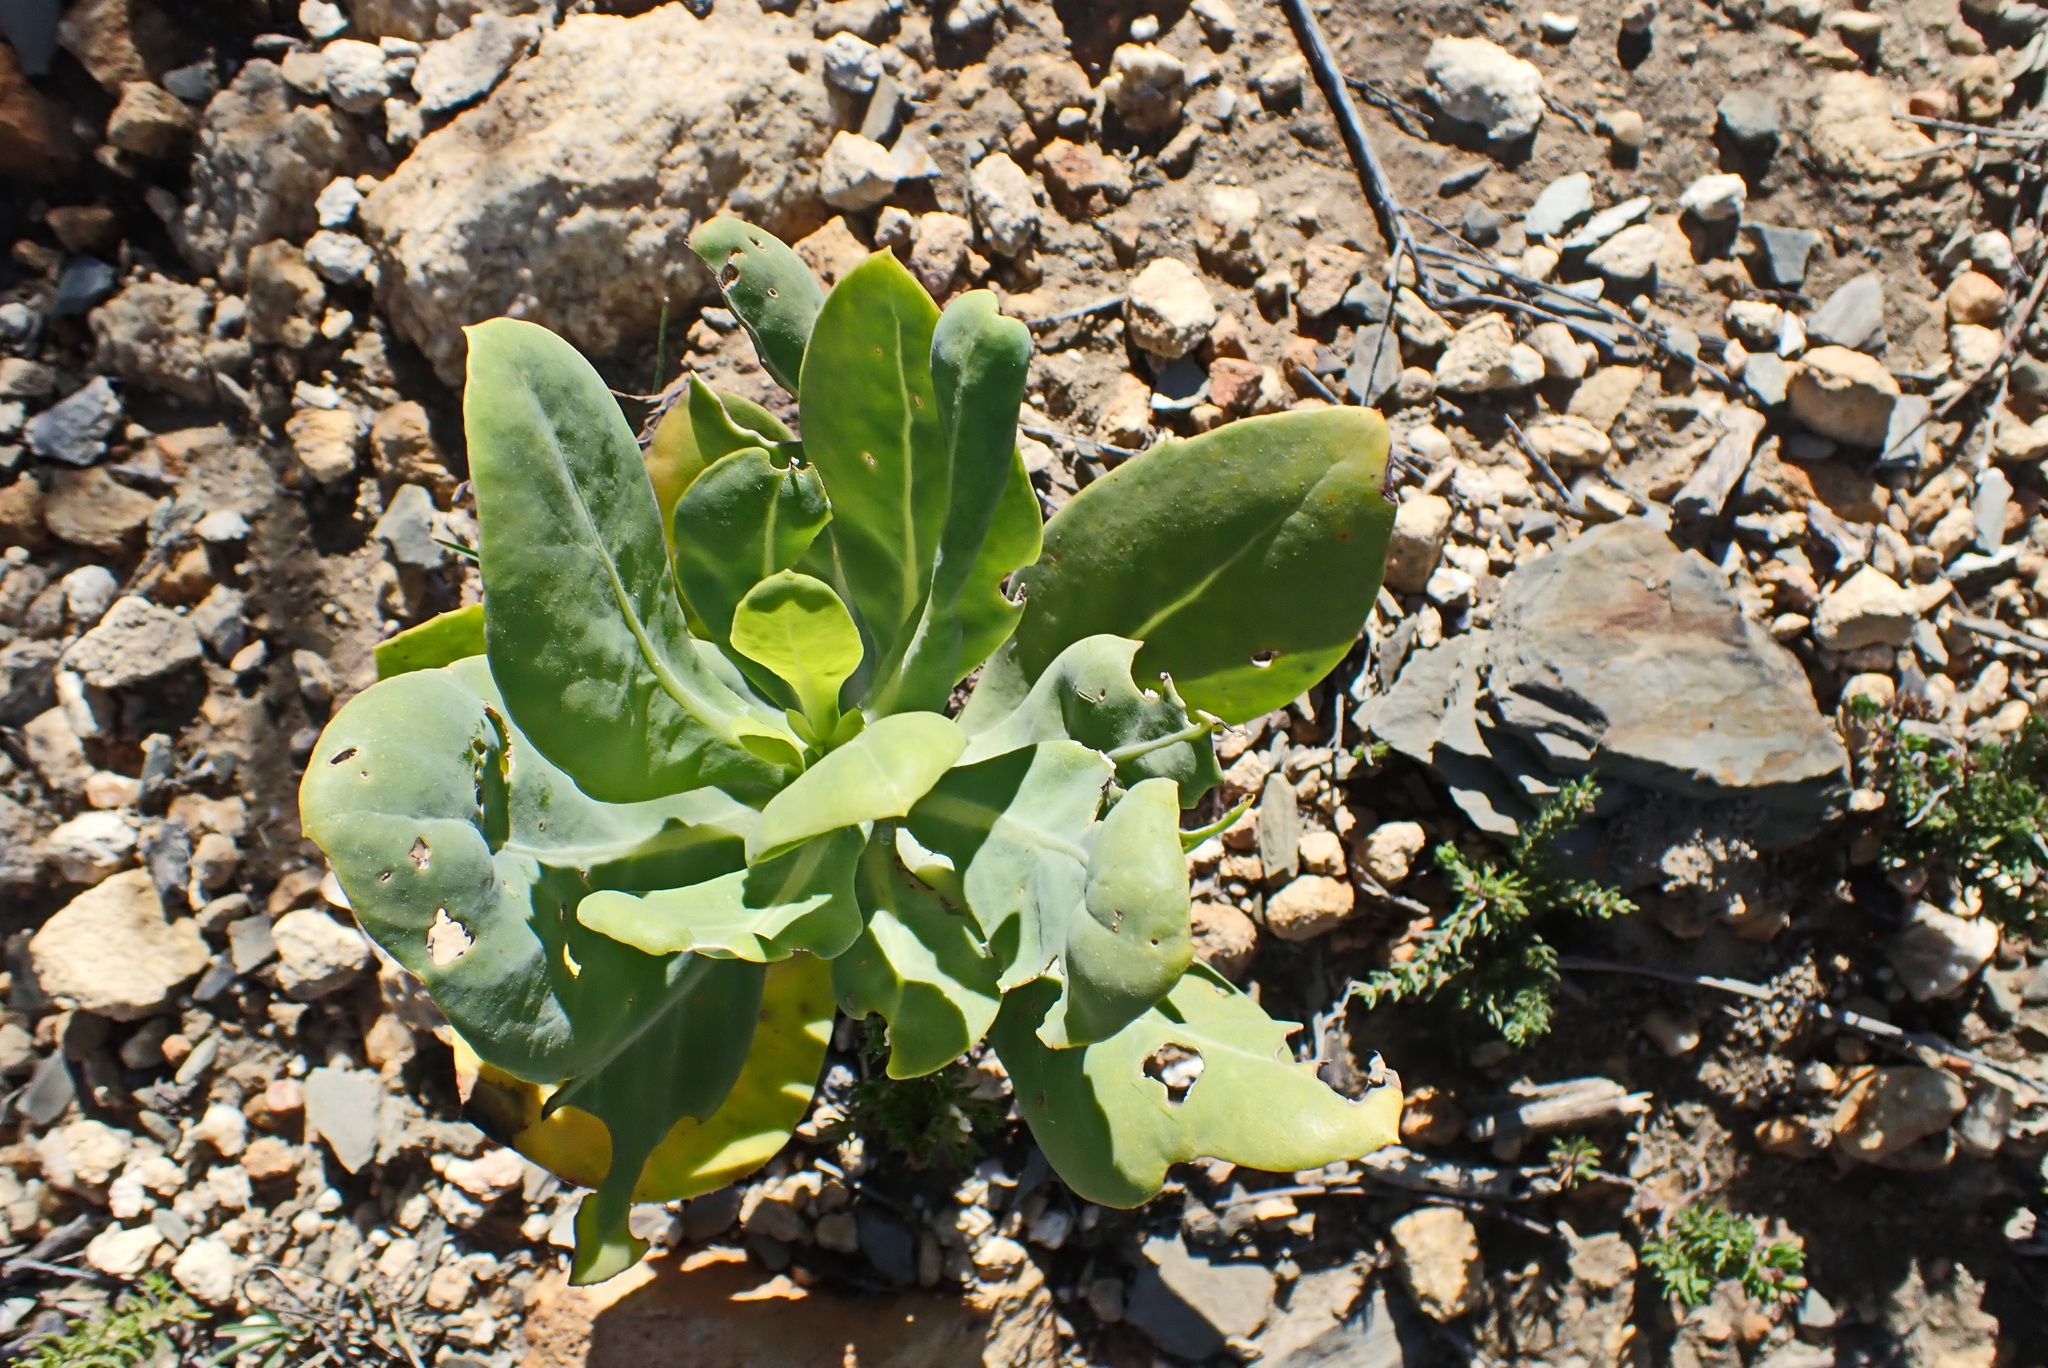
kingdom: Plantae
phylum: Tracheophyta
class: Magnoliopsida
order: Asterales
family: Asteraceae
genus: Othonna
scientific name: Othonna parviflora
